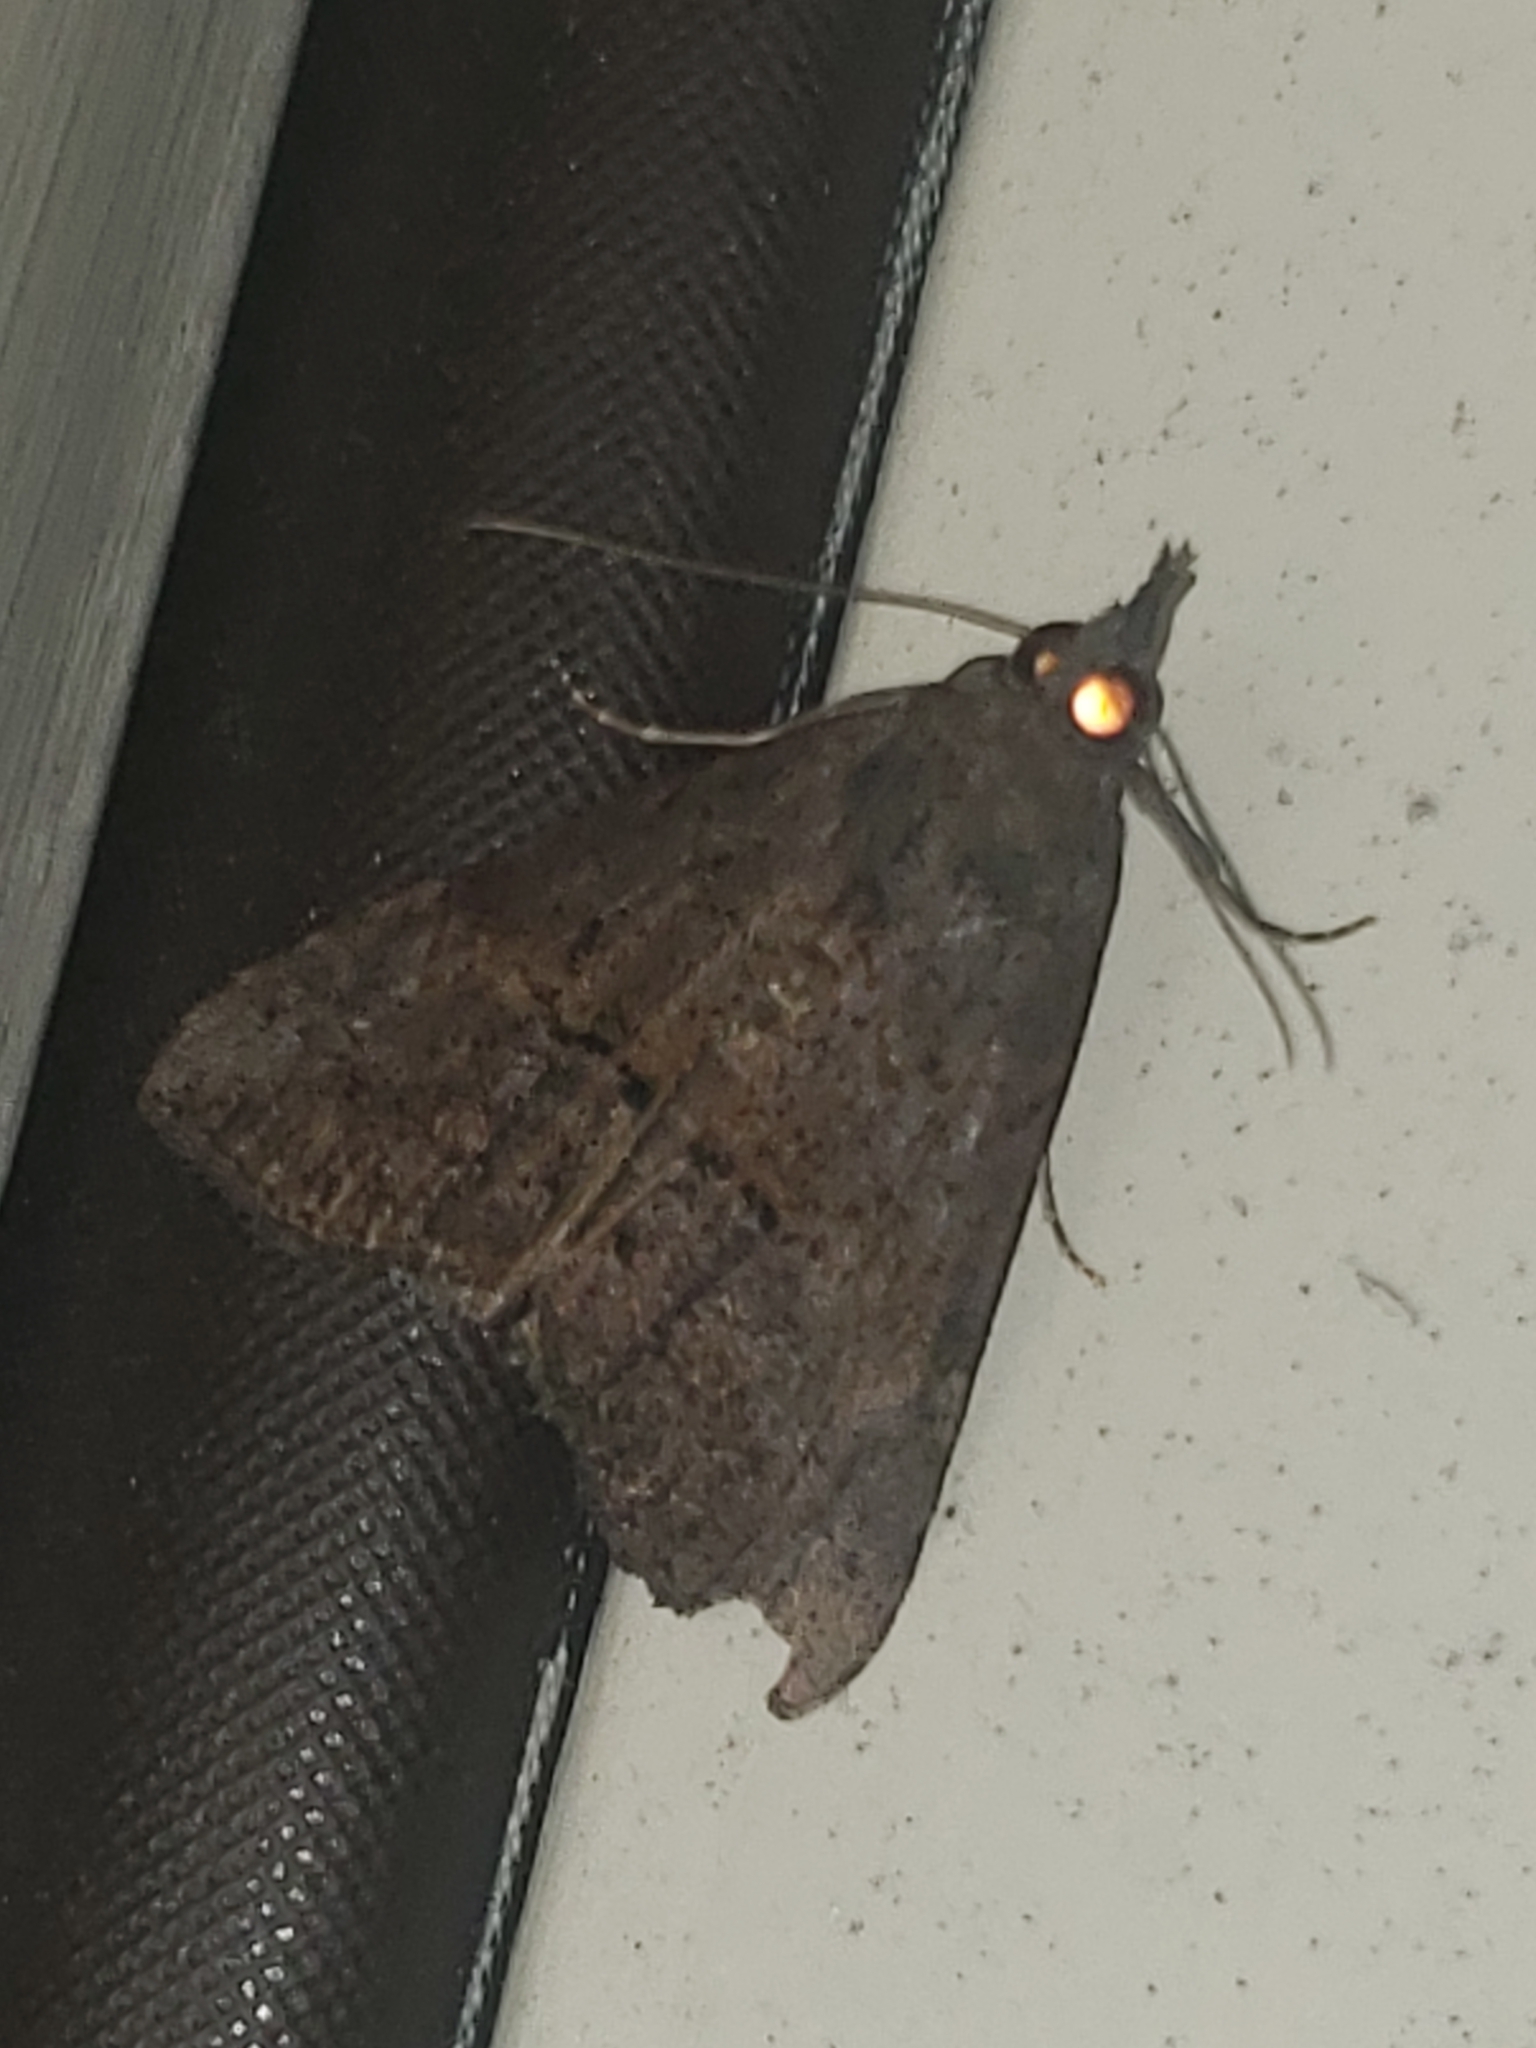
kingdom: Animalia
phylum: Arthropoda
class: Insecta
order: Lepidoptera
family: Erebidae
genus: Hypena
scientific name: Hypena scabra
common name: Green cloverworm
